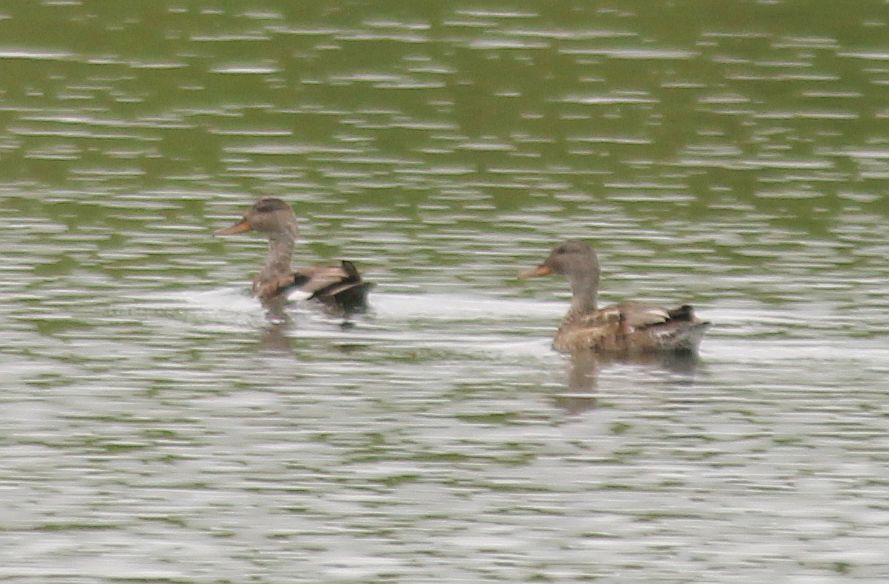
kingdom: Animalia
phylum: Chordata
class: Aves
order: Anseriformes
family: Anatidae
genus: Mareca
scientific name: Mareca strepera
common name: Gadwall
